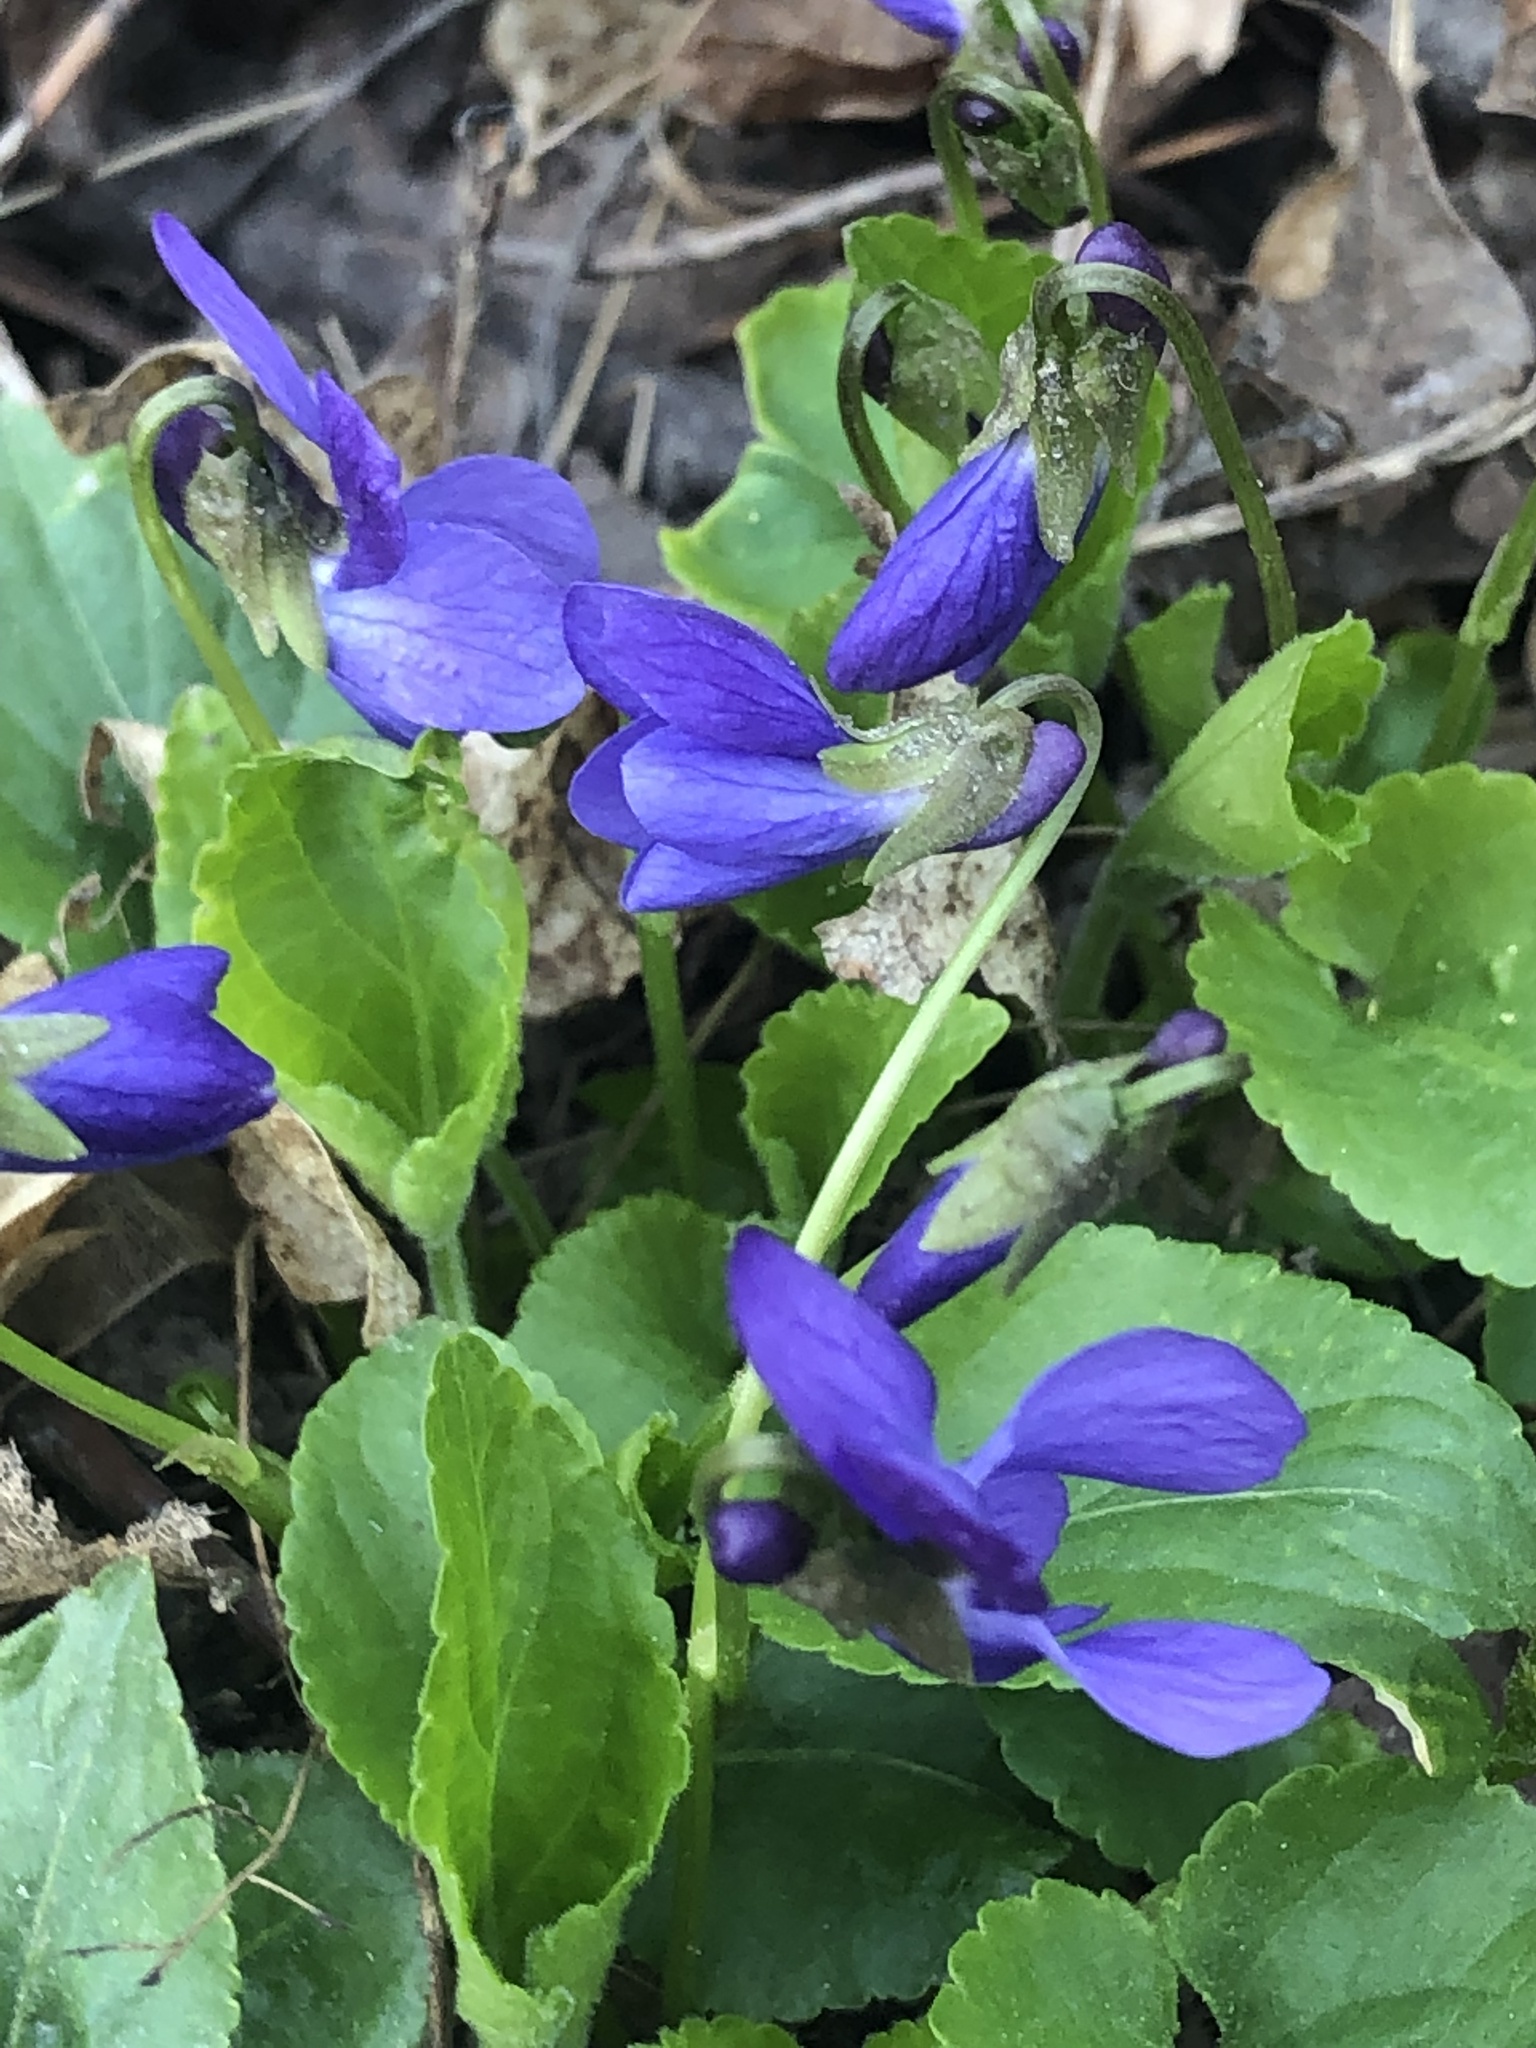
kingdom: Plantae
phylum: Tracheophyta
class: Magnoliopsida
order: Malpighiales
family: Violaceae
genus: Viola
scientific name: Viola odorata
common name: Sweet violet
